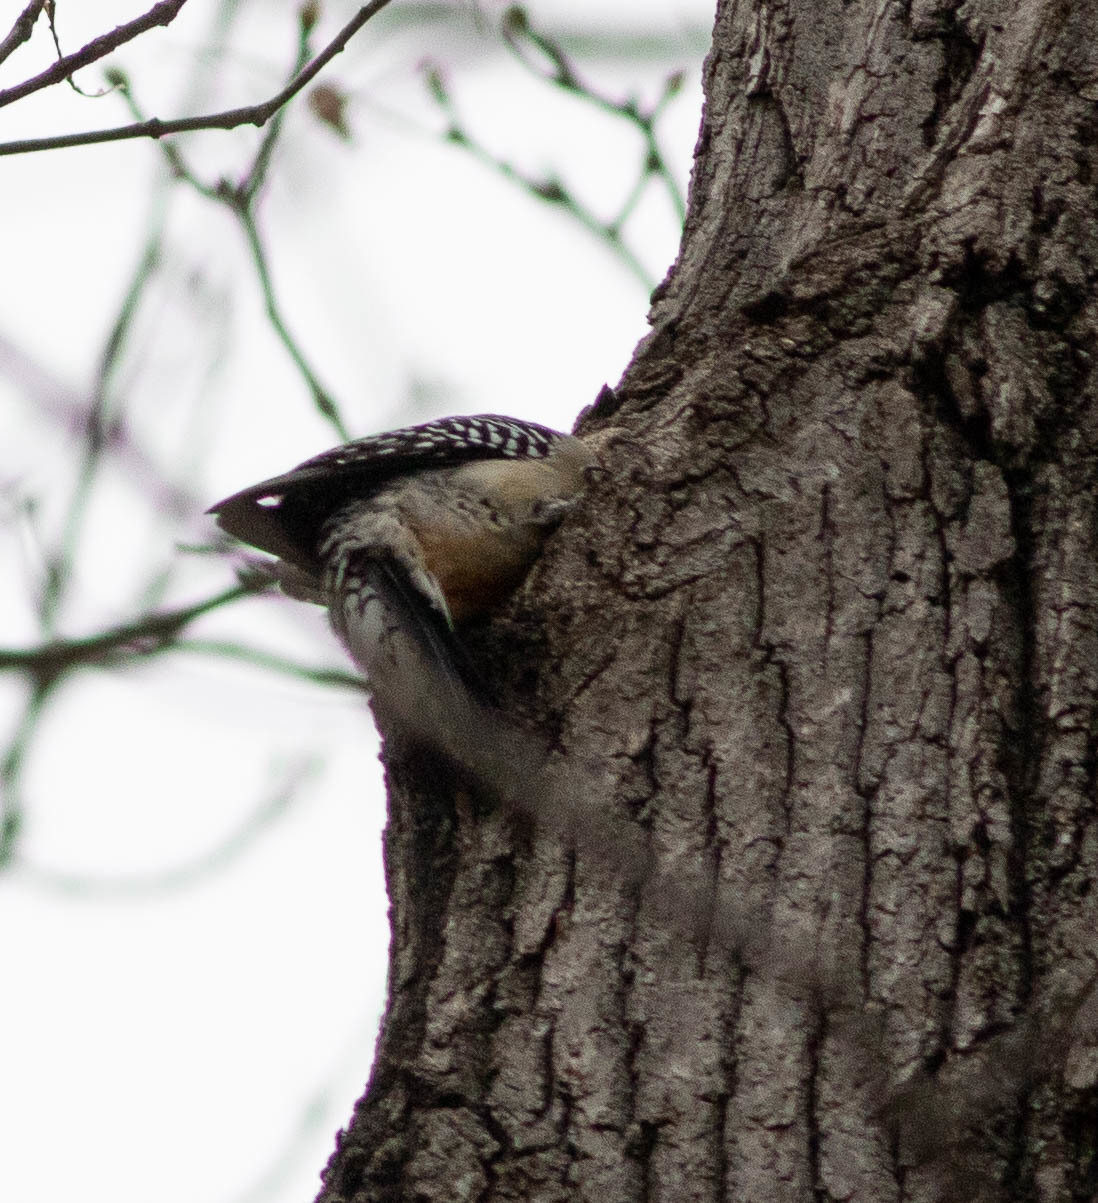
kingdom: Animalia
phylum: Chordata
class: Aves
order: Piciformes
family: Picidae
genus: Melanerpes
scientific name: Melanerpes carolinus
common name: Red-bellied woodpecker
